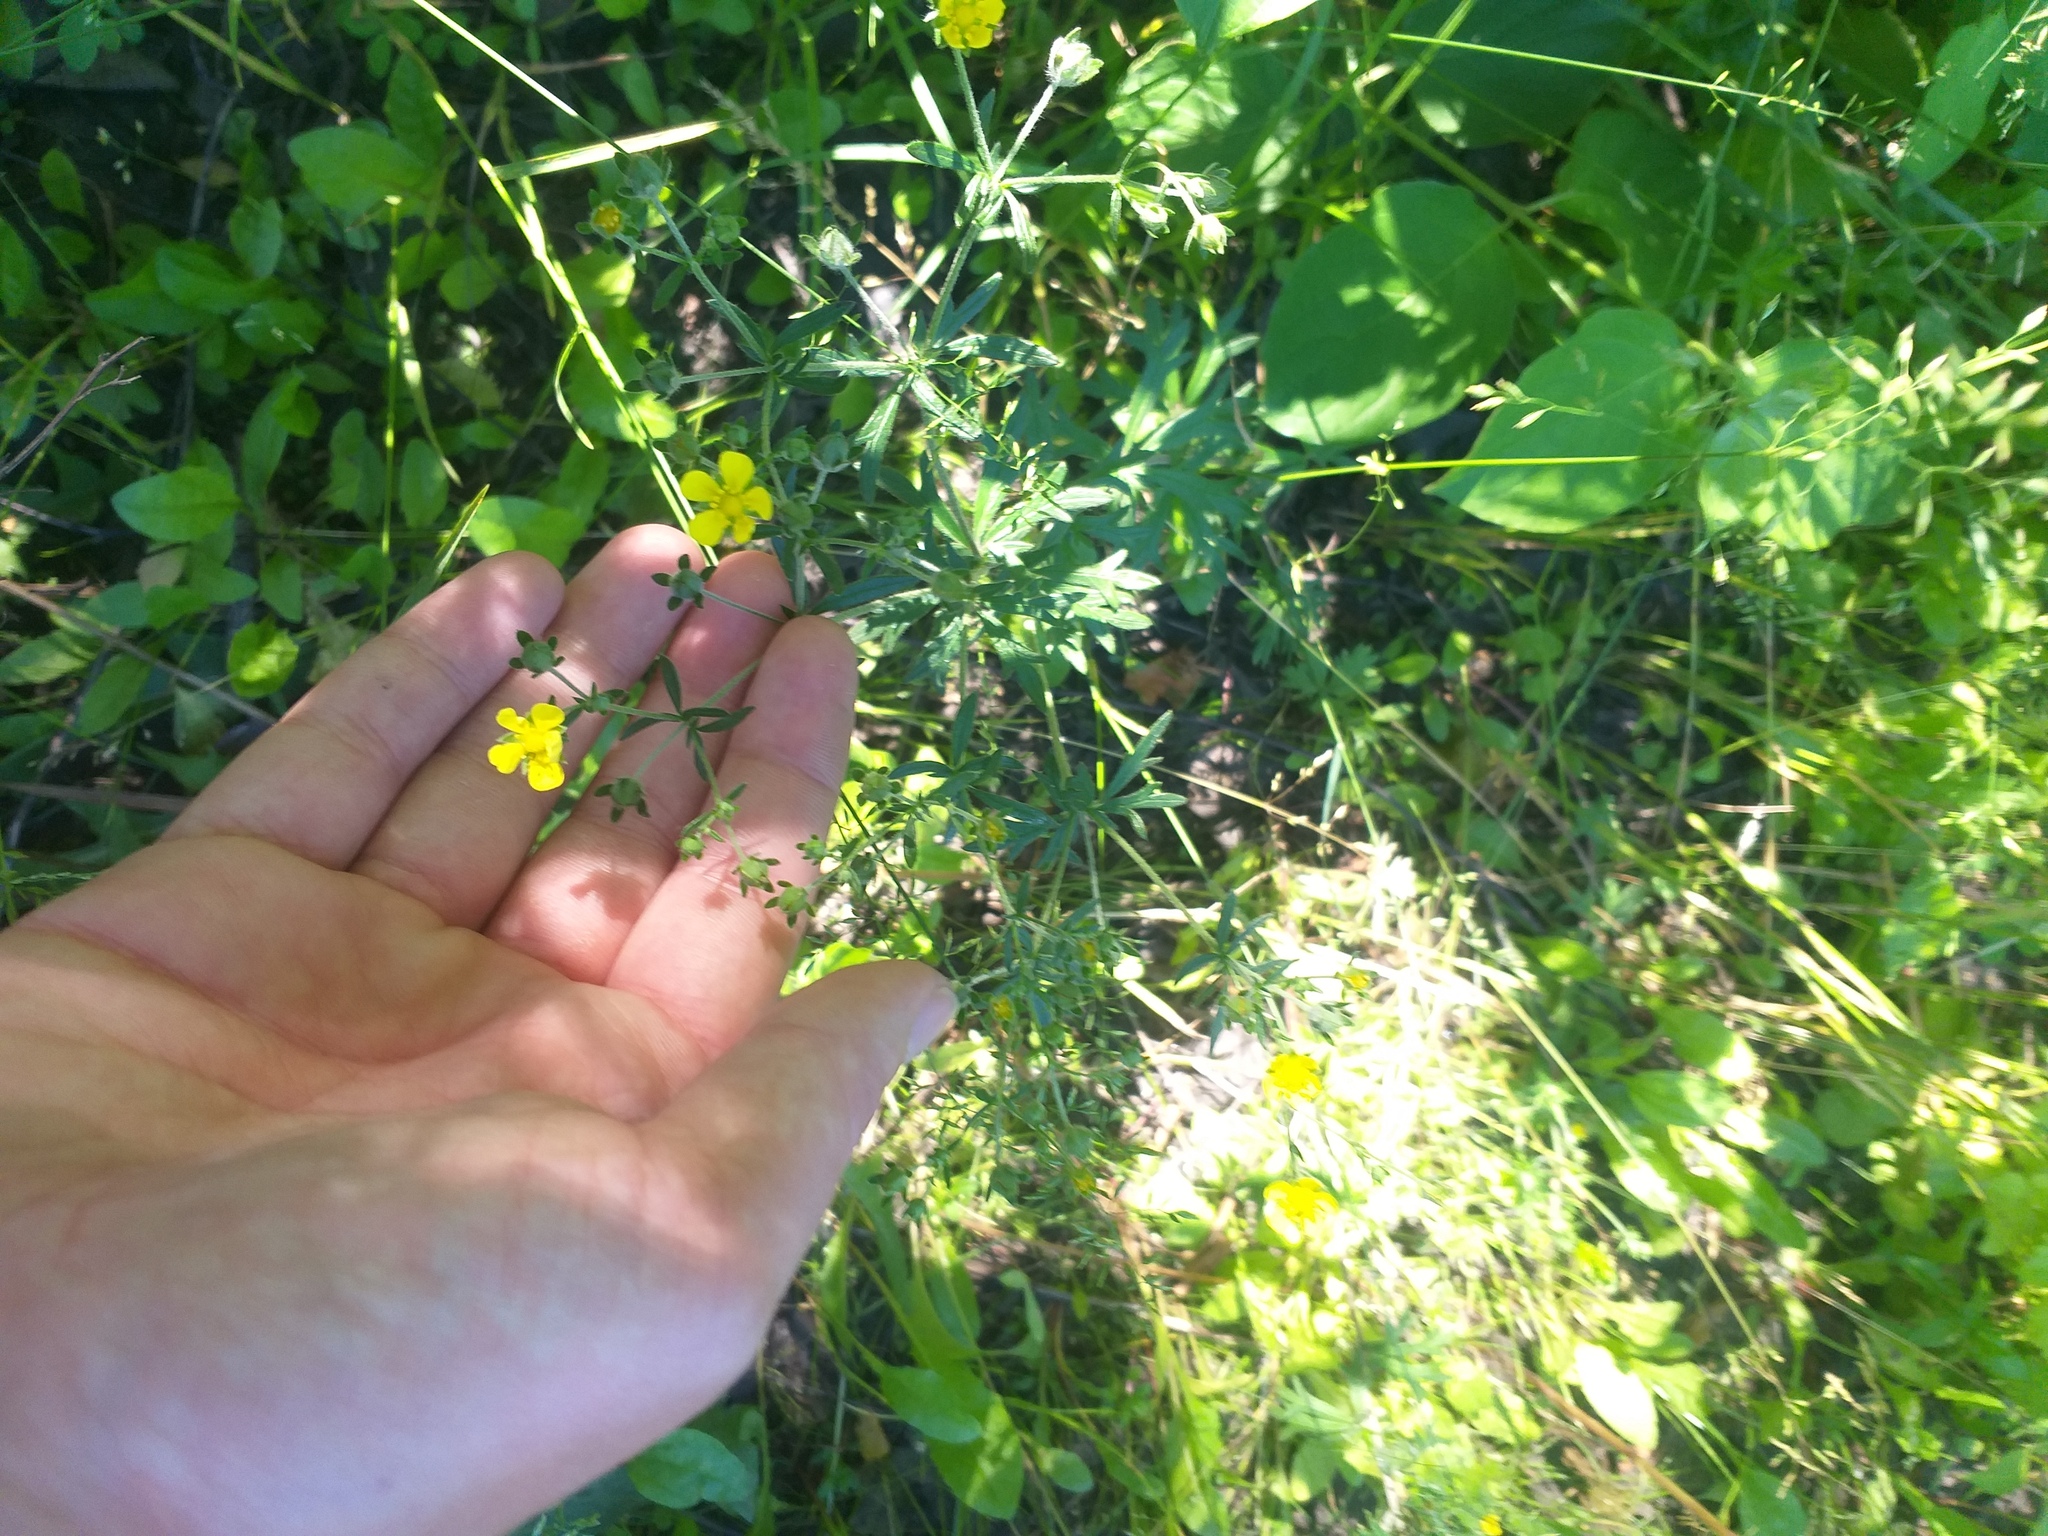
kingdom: Plantae
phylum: Tracheophyta
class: Magnoliopsida
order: Rosales
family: Rosaceae
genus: Potentilla
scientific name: Potentilla argentea
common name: Hoary cinquefoil
